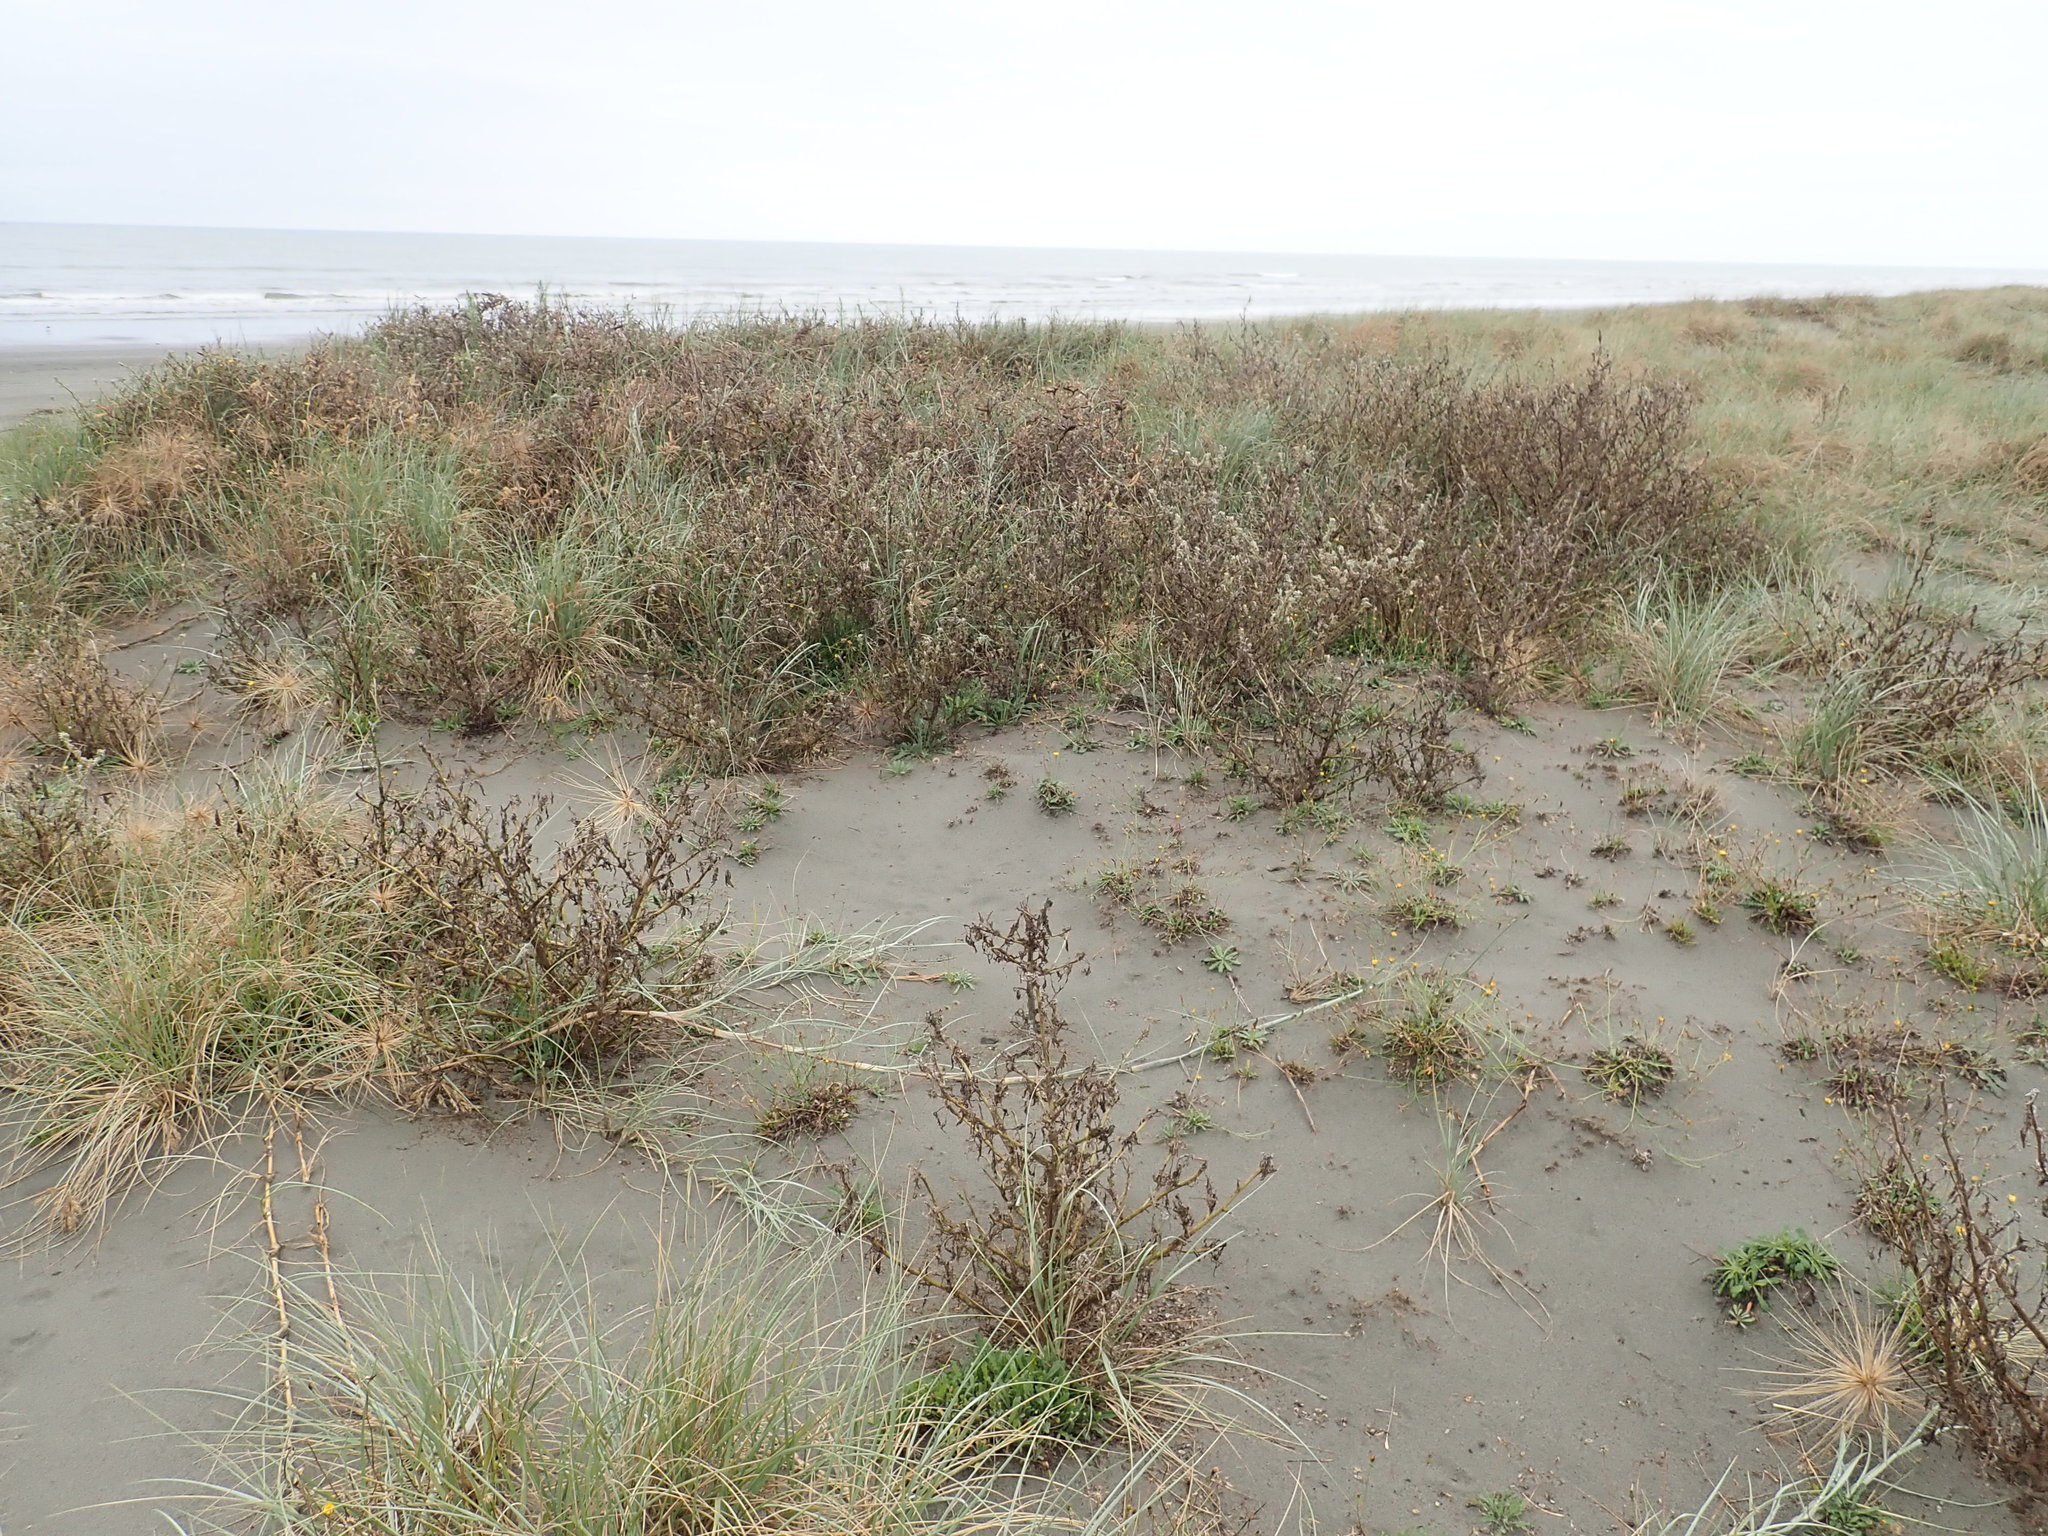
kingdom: Plantae
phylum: Tracheophyta
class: Magnoliopsida
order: Fabales
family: Fabaceae
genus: Lupinus
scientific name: Lupinus arboreus
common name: Yellow bush lupine
